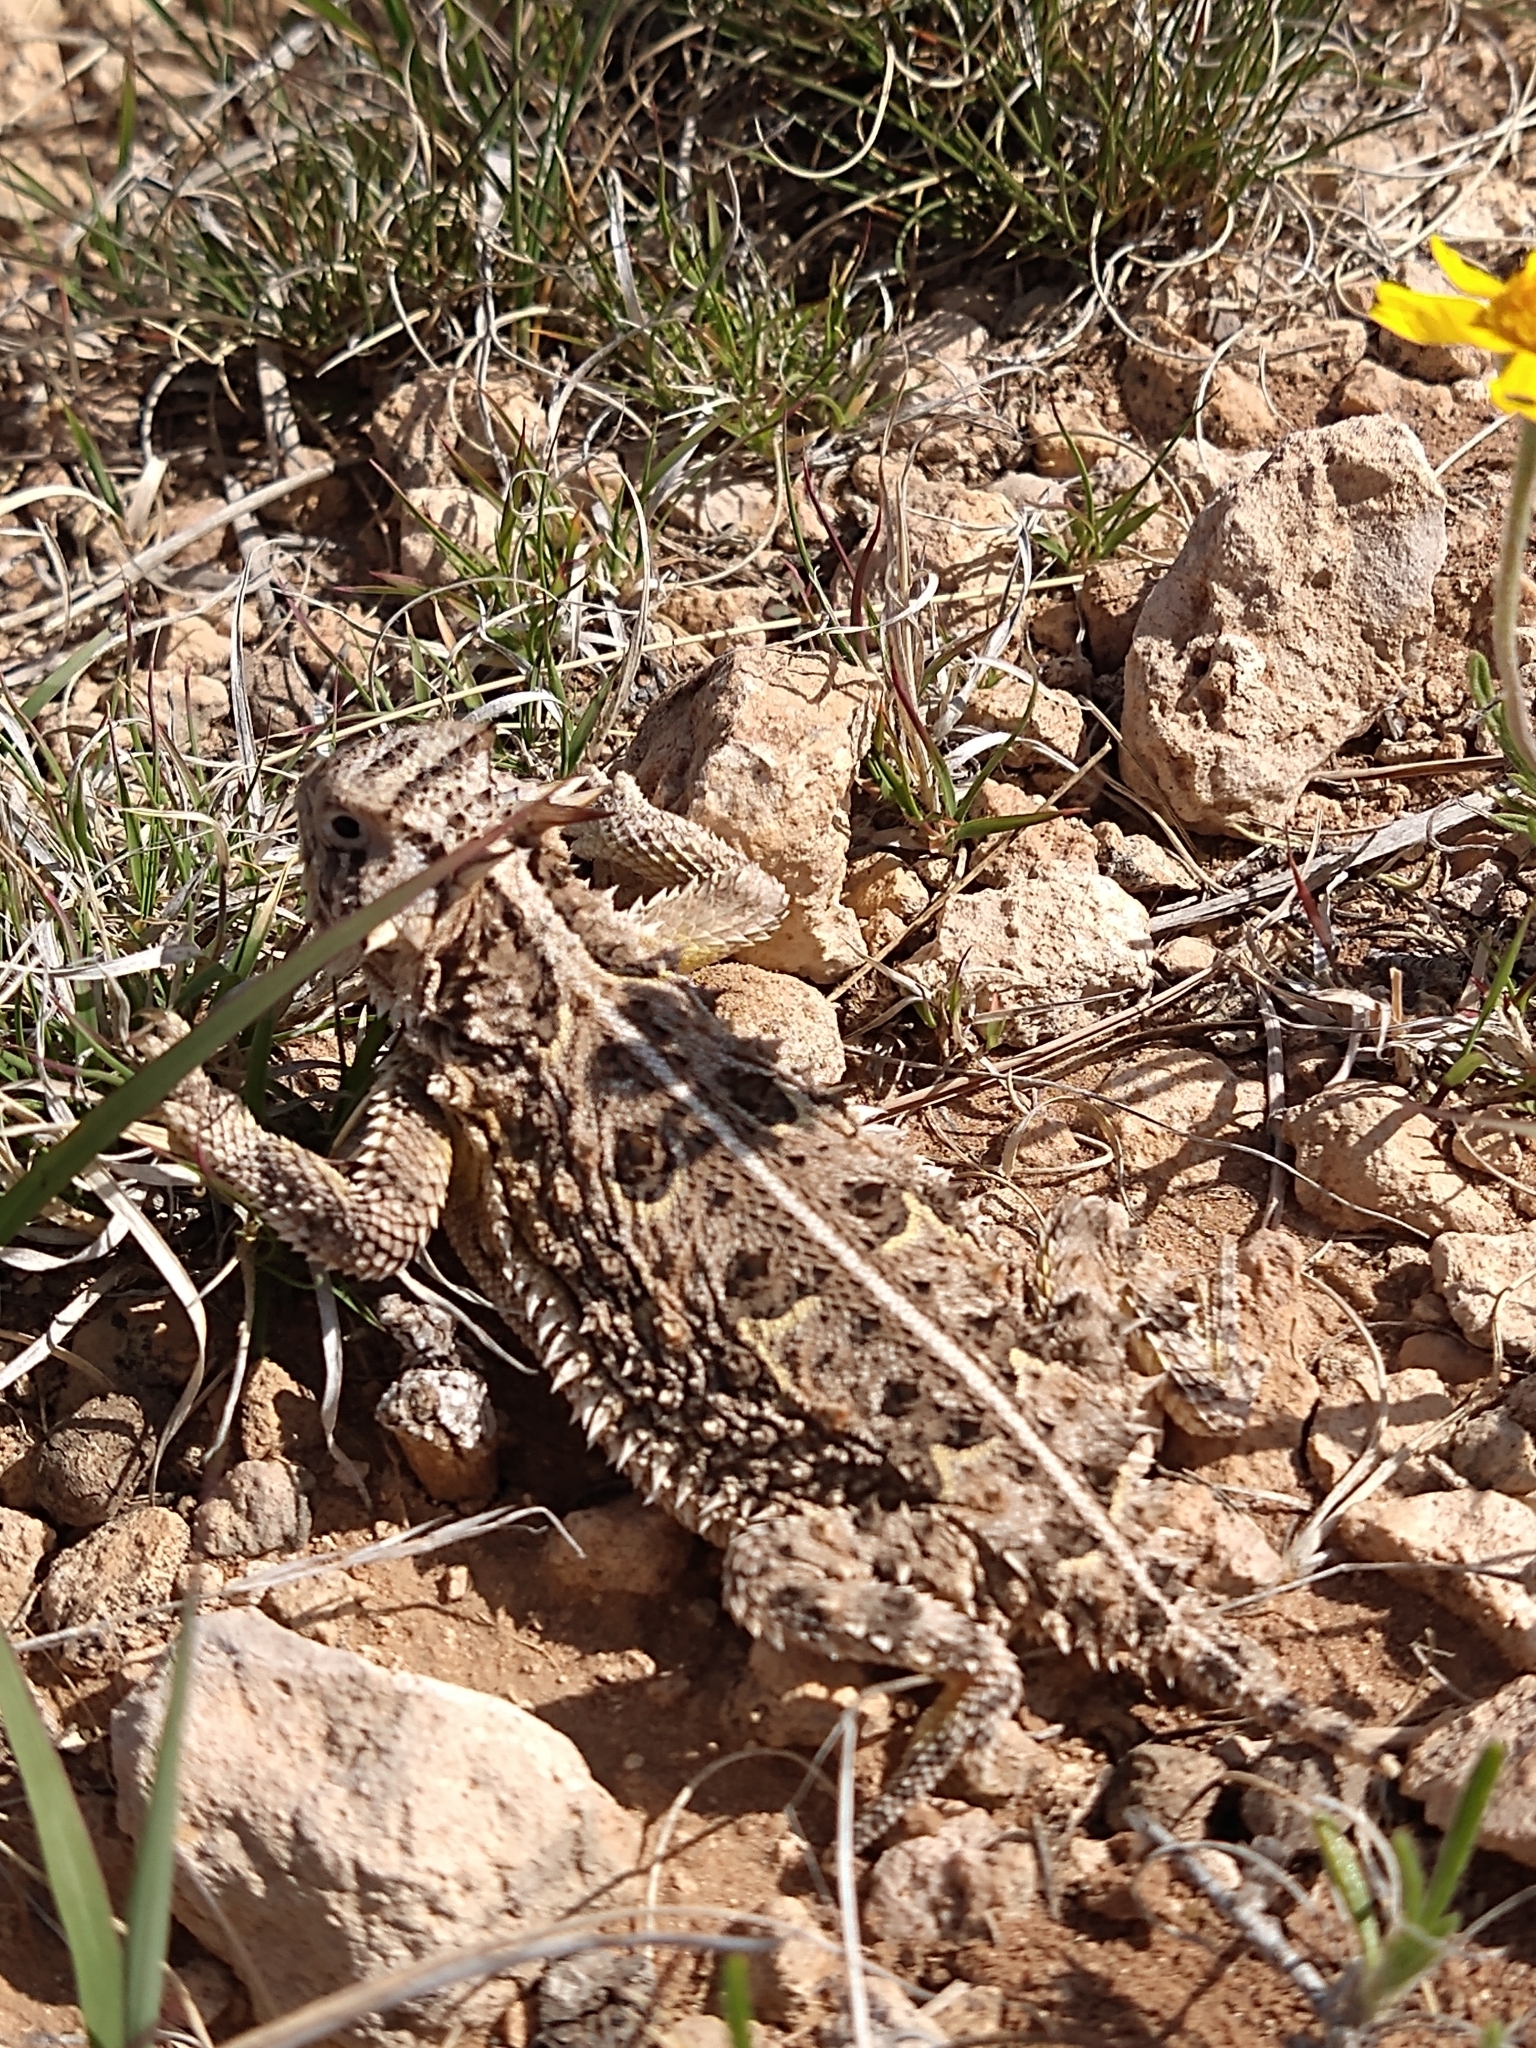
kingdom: Animalia
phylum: Chordata
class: Squamata
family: Phrynosomatidae
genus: Phrynosoma
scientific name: Phrynosoma cornutum
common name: Texas horned lizard
